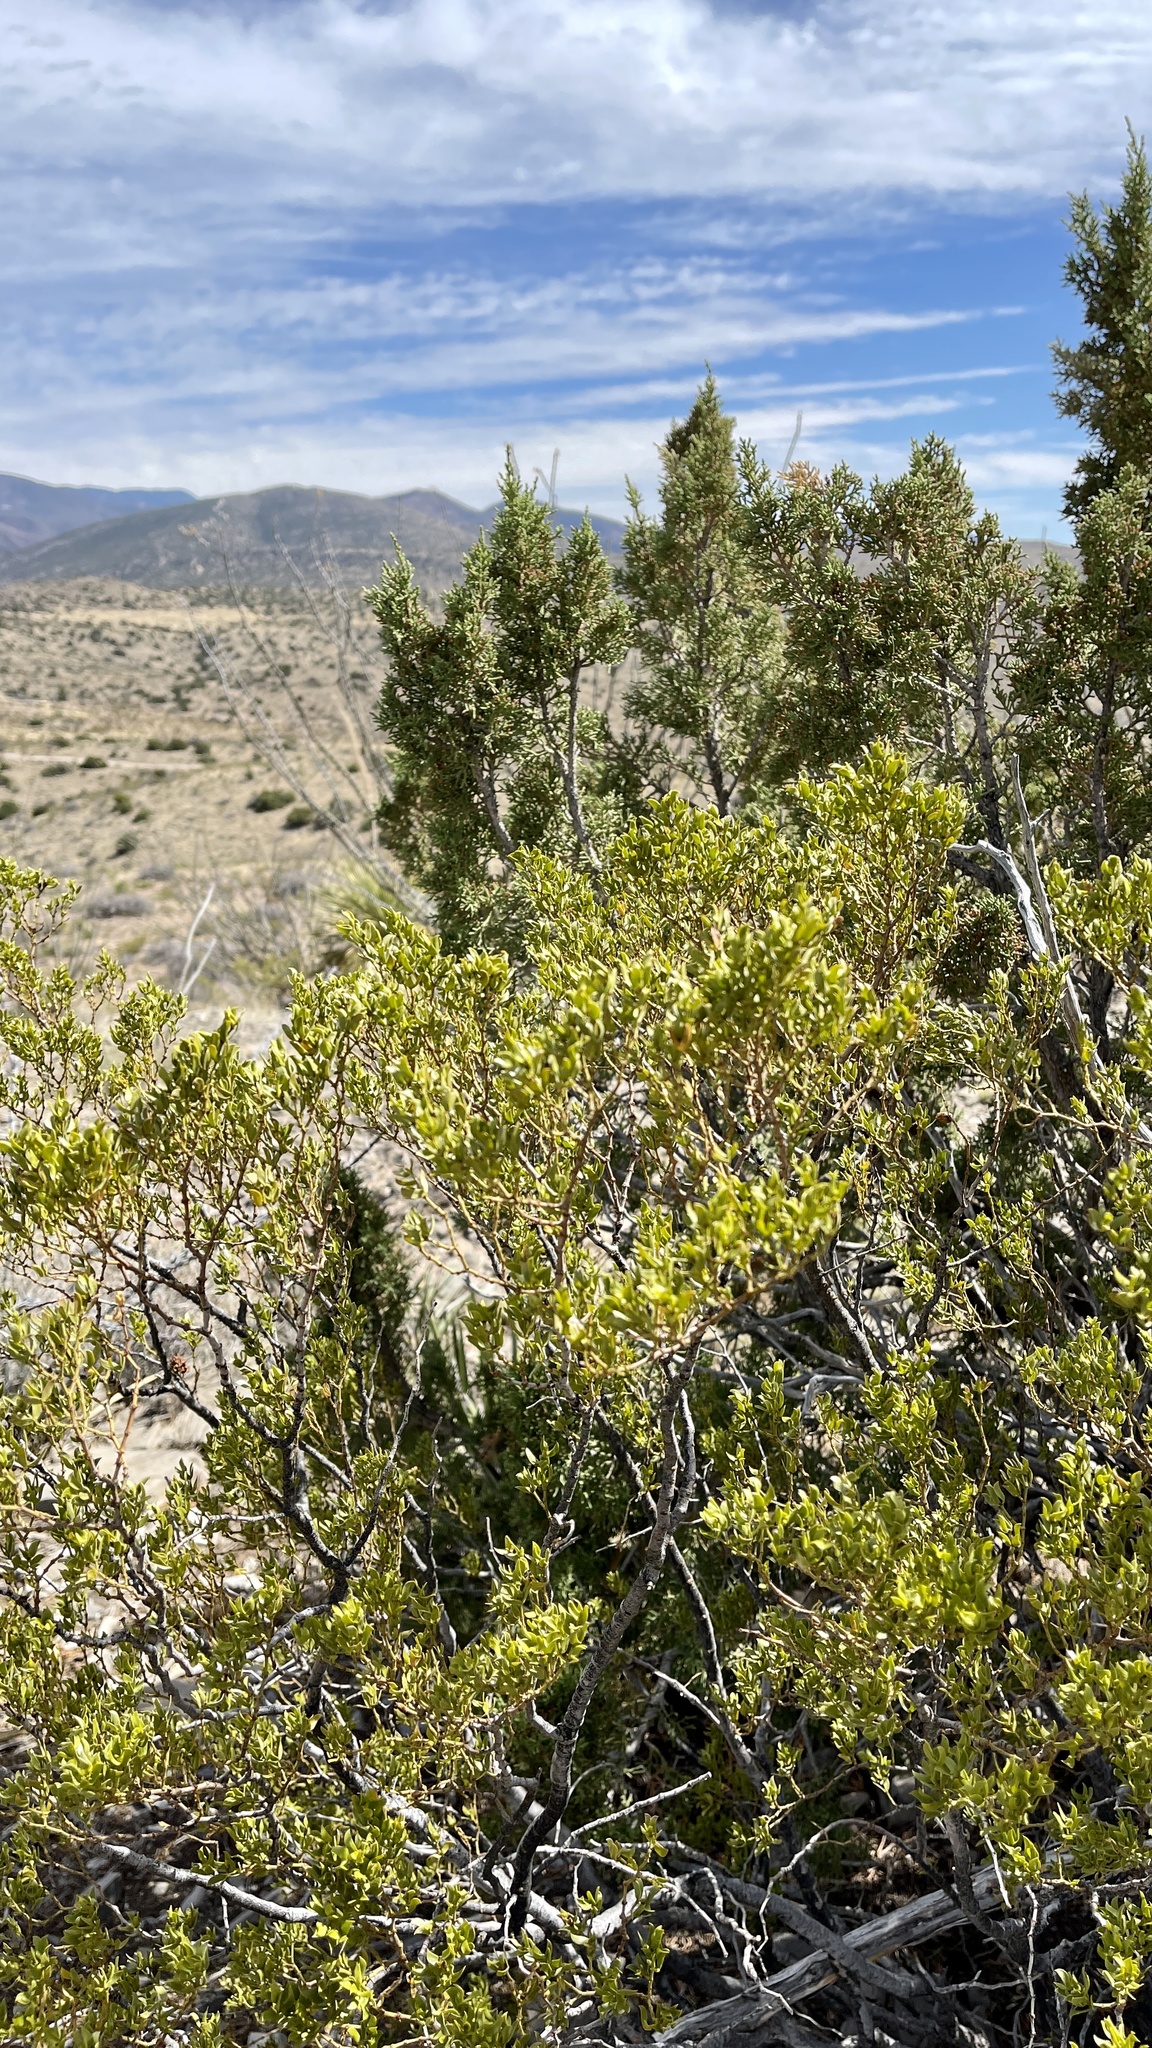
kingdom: Plantae
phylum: Tracheophyta
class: Magnoliopsida
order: Zygophyllales
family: Zygophyllaceae
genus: Larrea
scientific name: Larrea tridentata
